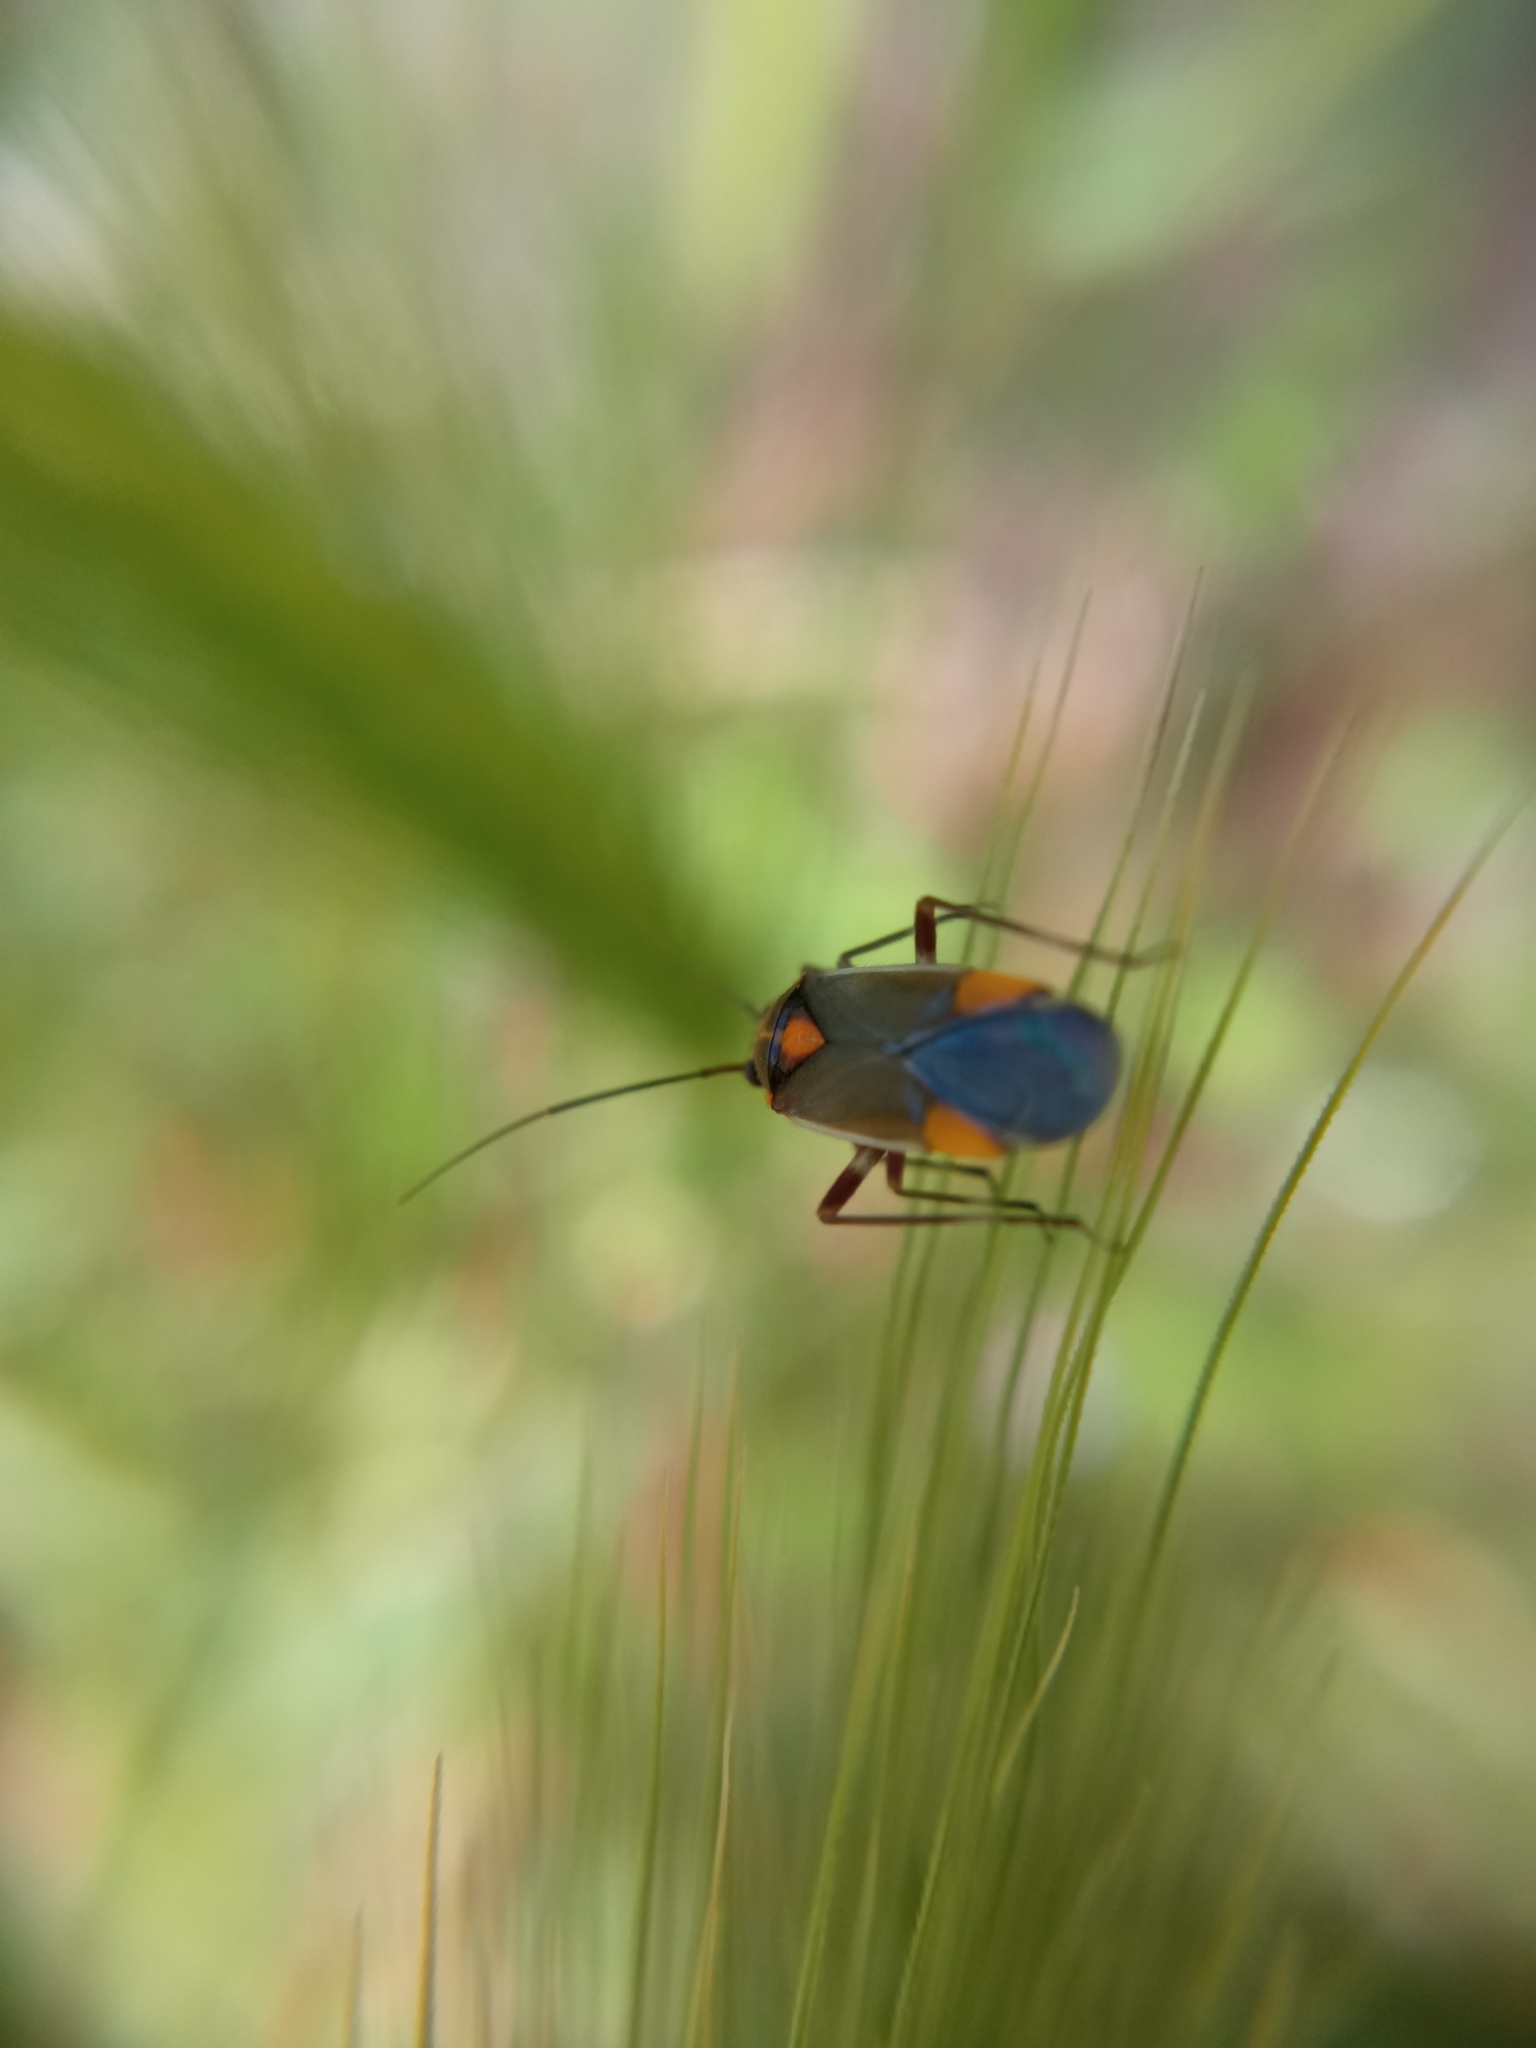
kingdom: Animalia
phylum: Arthropoda
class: Insecta
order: Hemiptera
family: Miridae
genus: Capsodes
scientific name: Capsodes flavomarginatus
